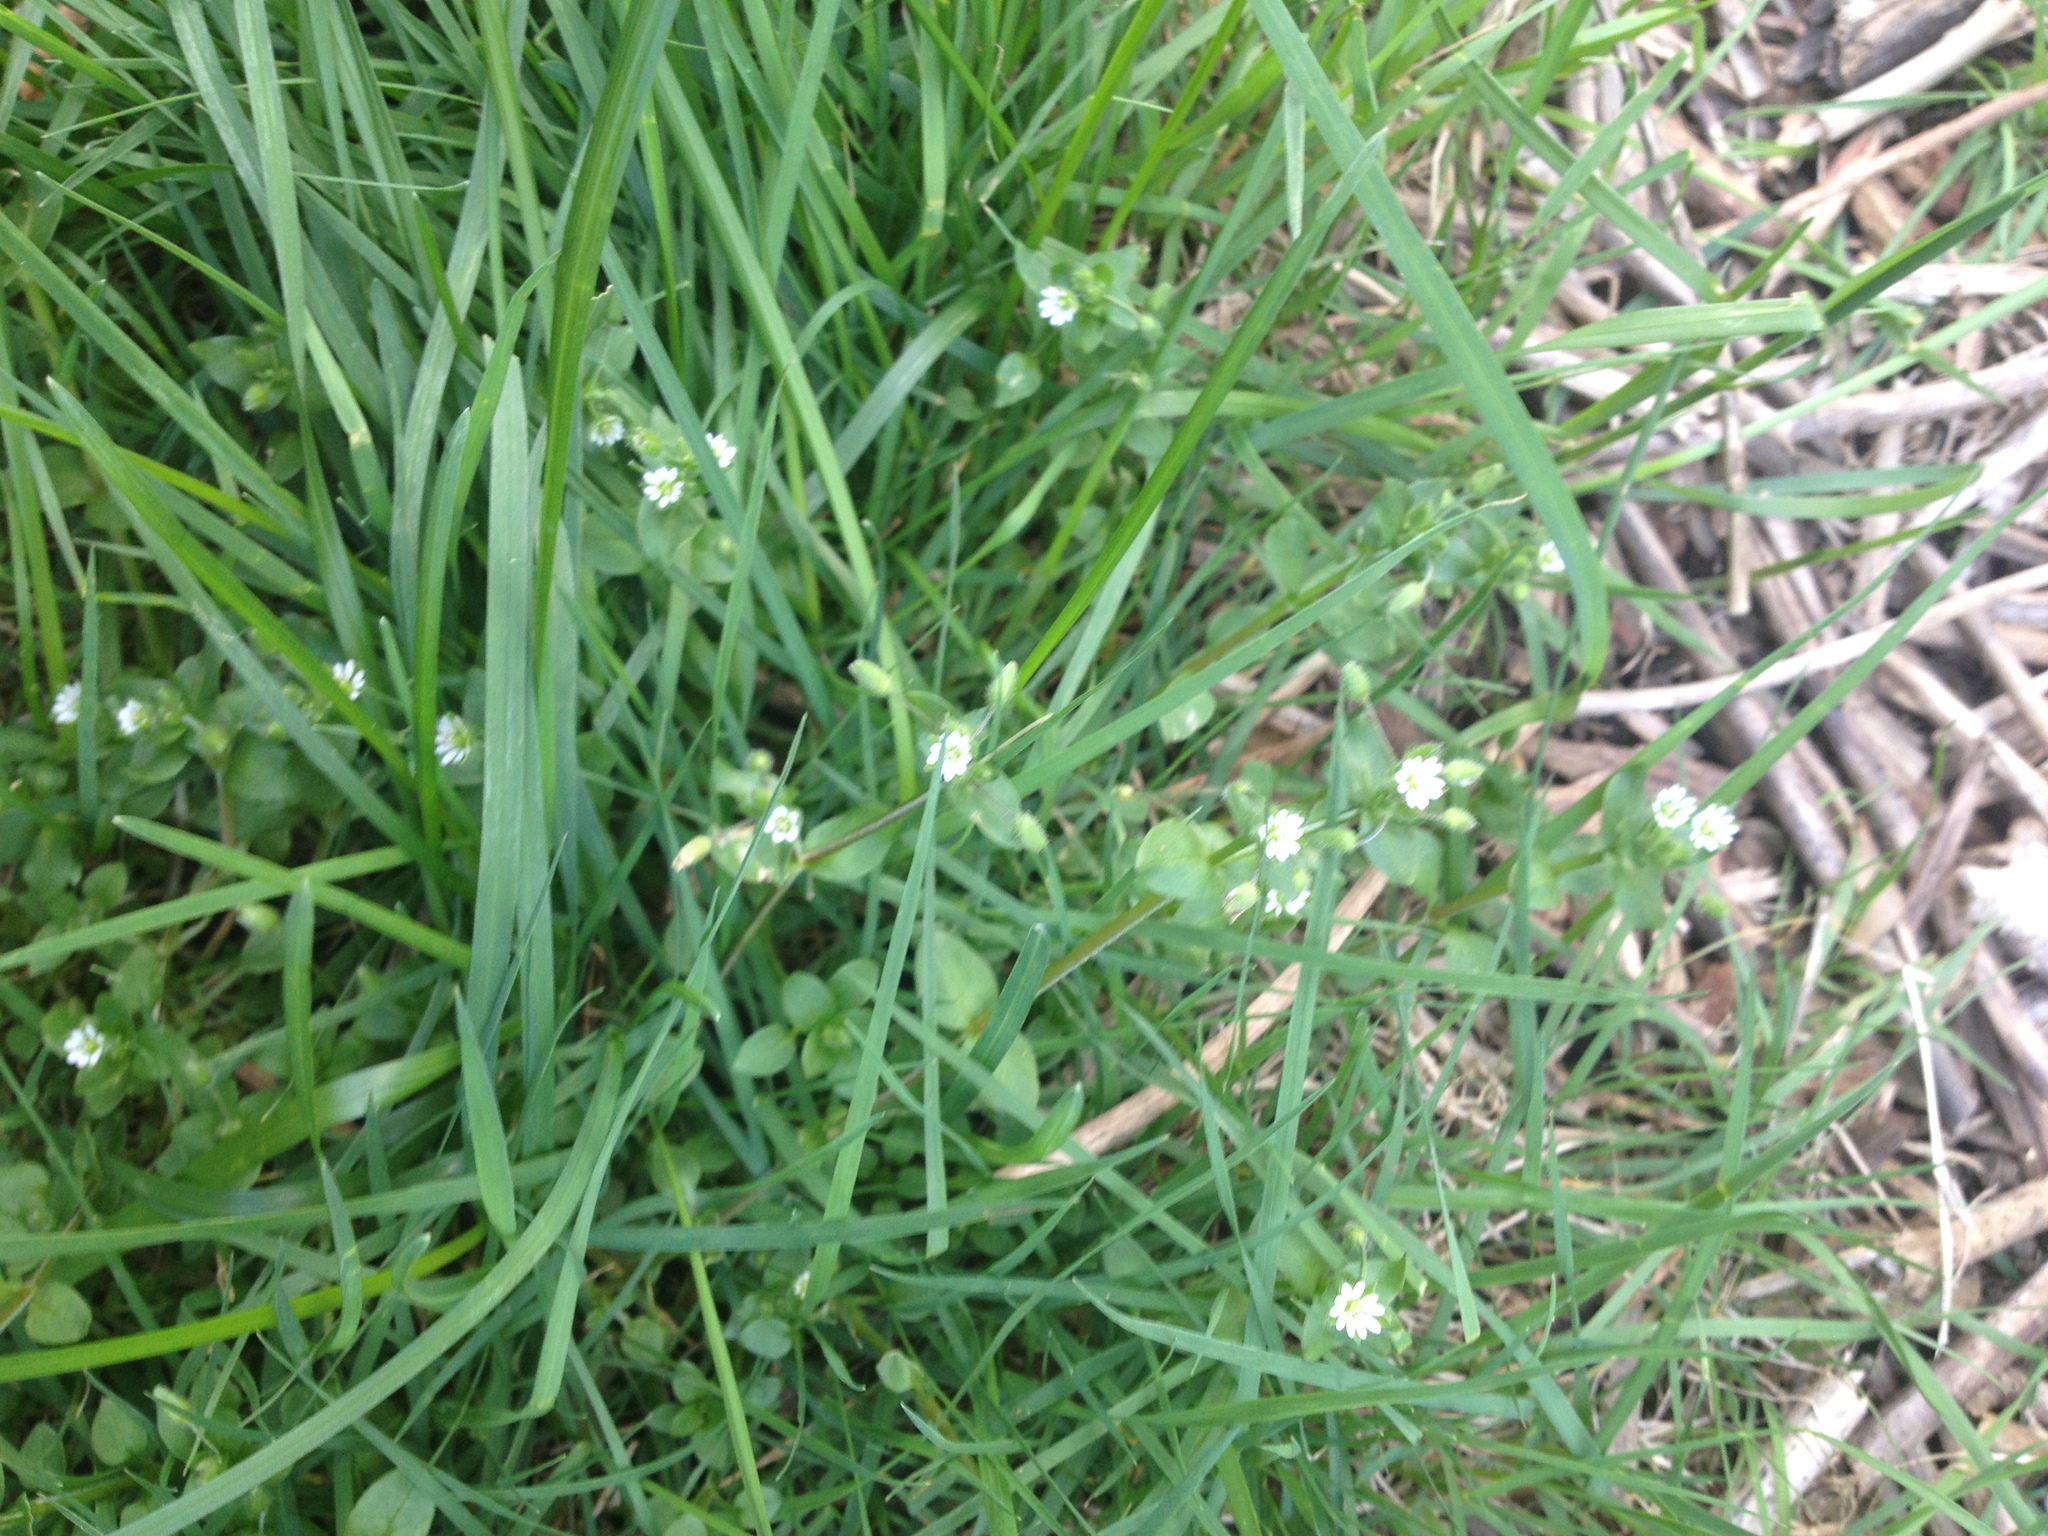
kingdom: Plantae
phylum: Tracheophyta
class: Magnoliopsida
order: Caryophyllales
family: Caryophyllaceae
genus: Stellaria
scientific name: Stellaria media
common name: Common chickweed
